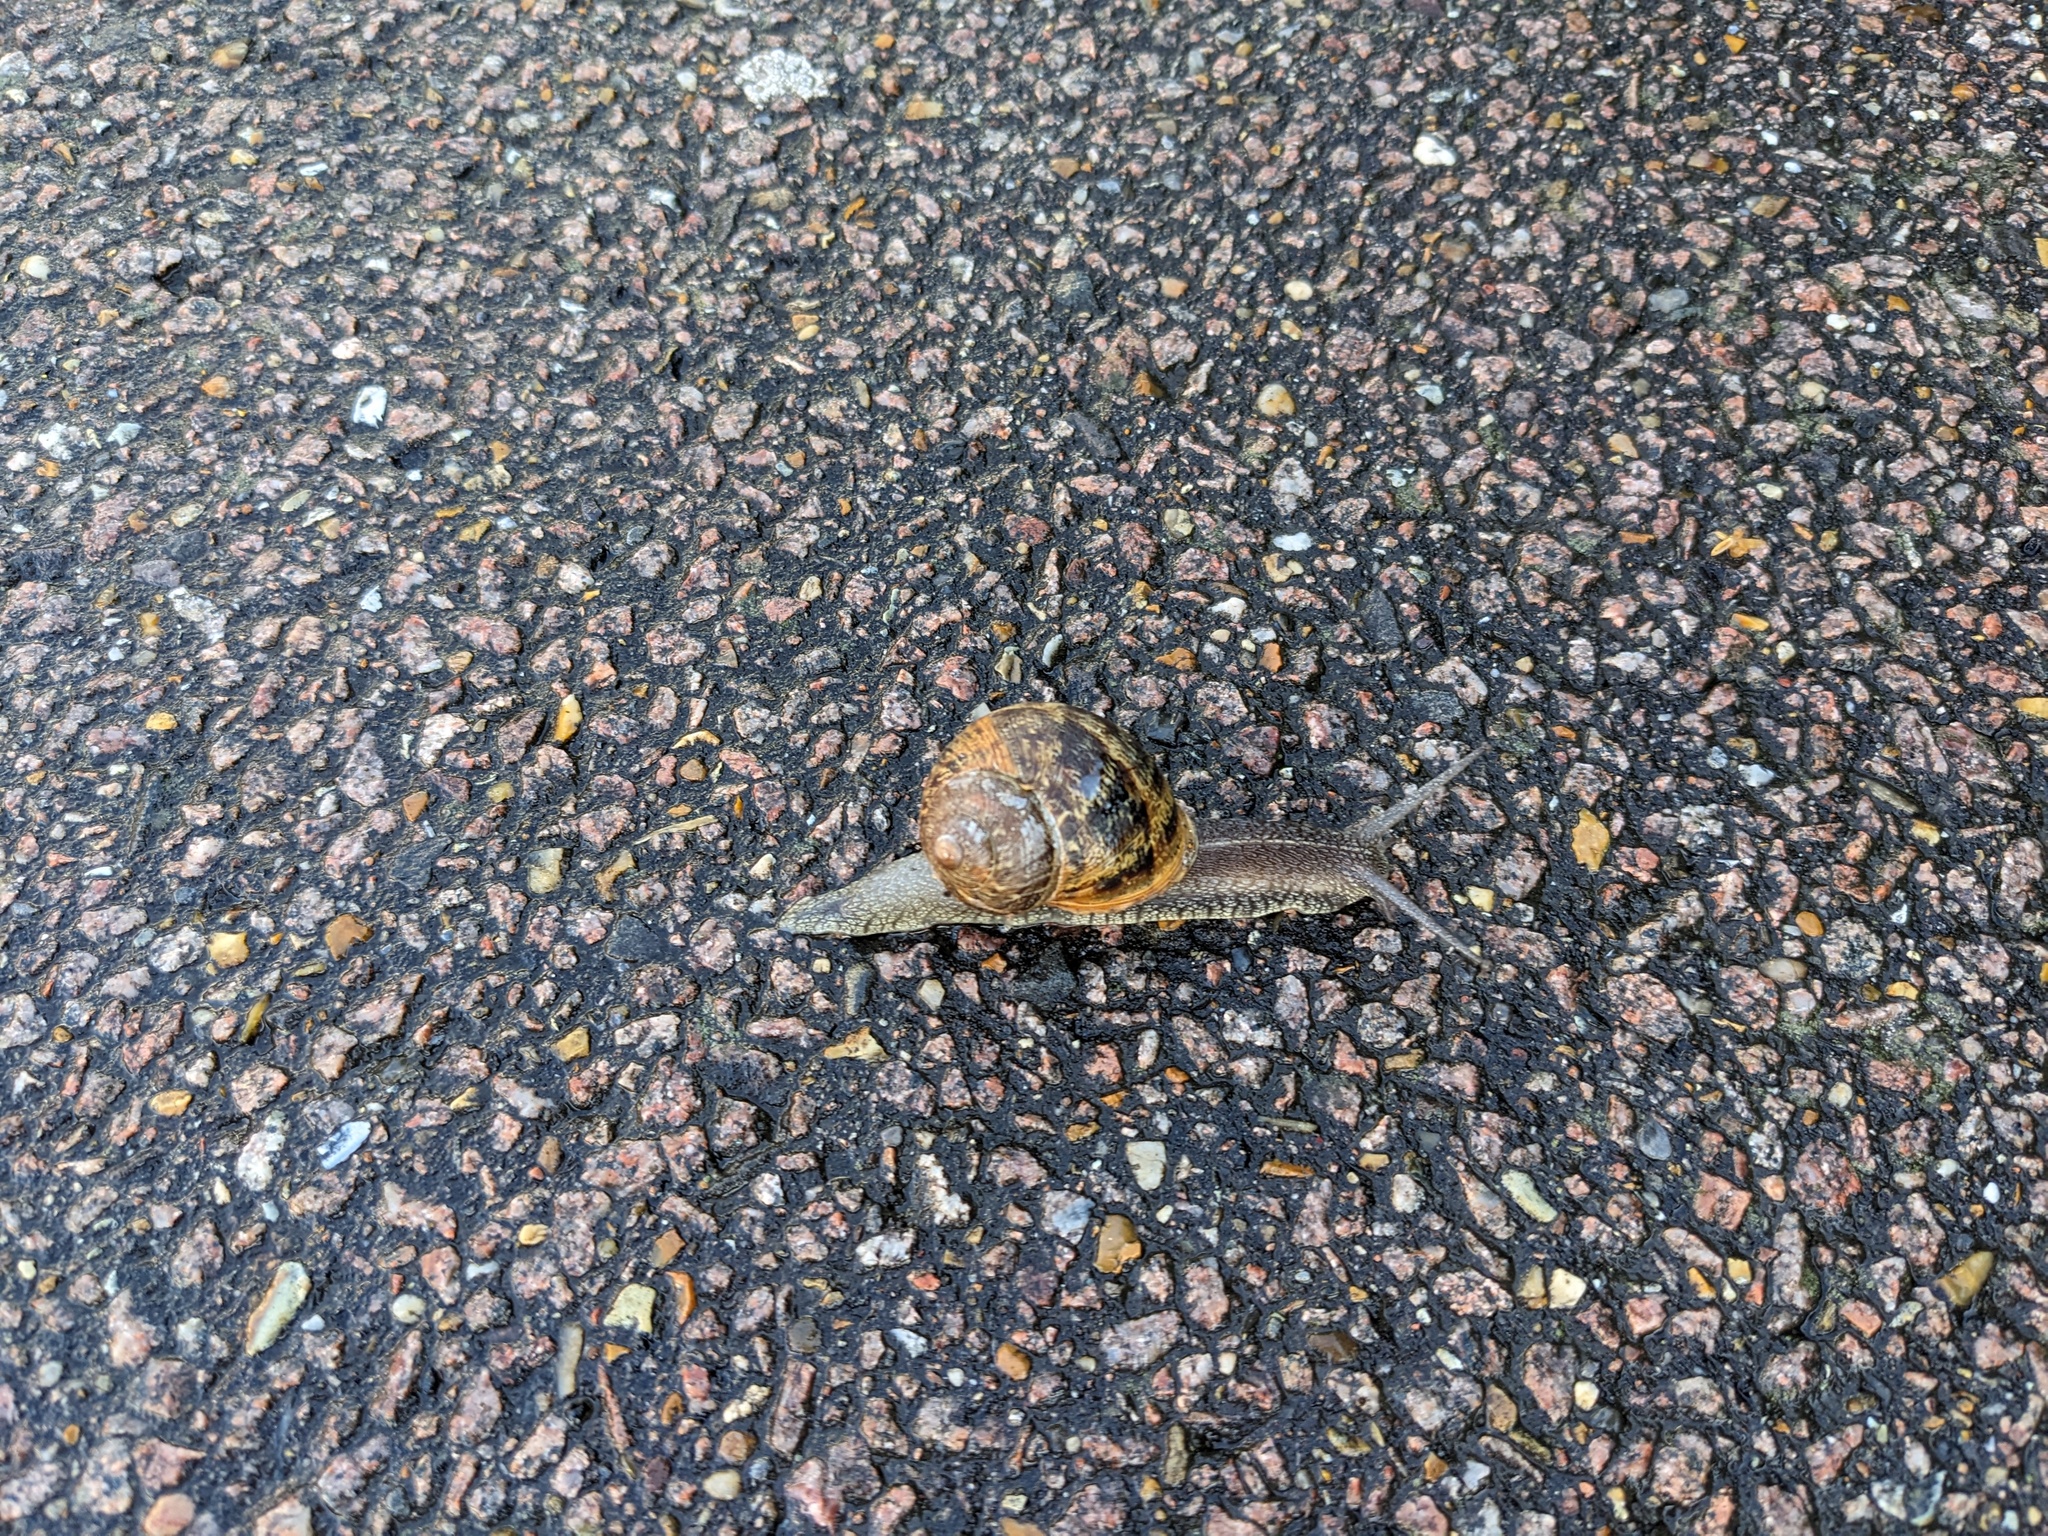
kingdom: Animalia
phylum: Mollusca
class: Gastropoda
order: Stylommatophora
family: Helicidae
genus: Cornu
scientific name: Cornu aspersum
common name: Brown garden snail
